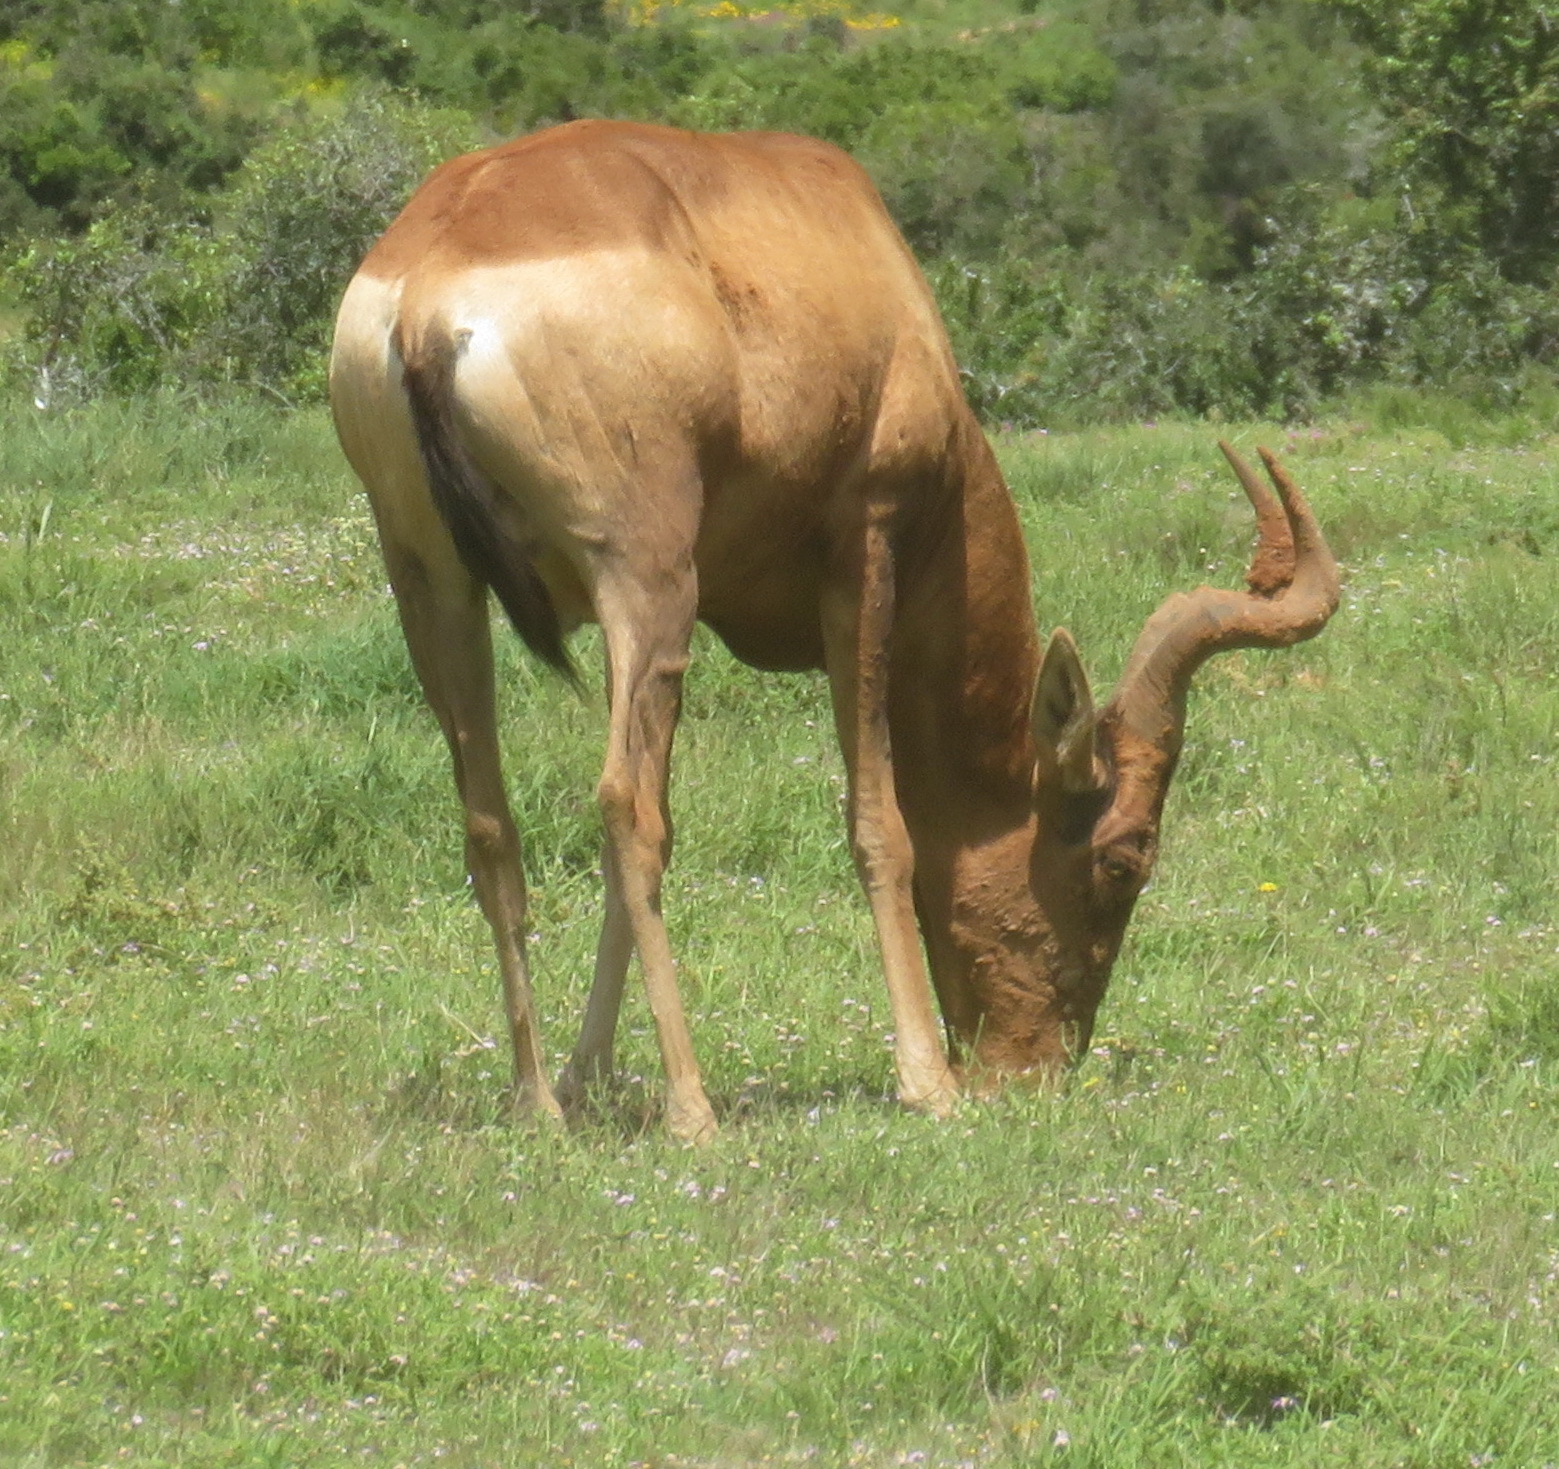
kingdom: Animalia
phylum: Chordata
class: Mammalia
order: Artiodactyla
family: Bovidae
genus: Alcelaphus
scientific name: Alcelaphus caama
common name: Red hartebeest
